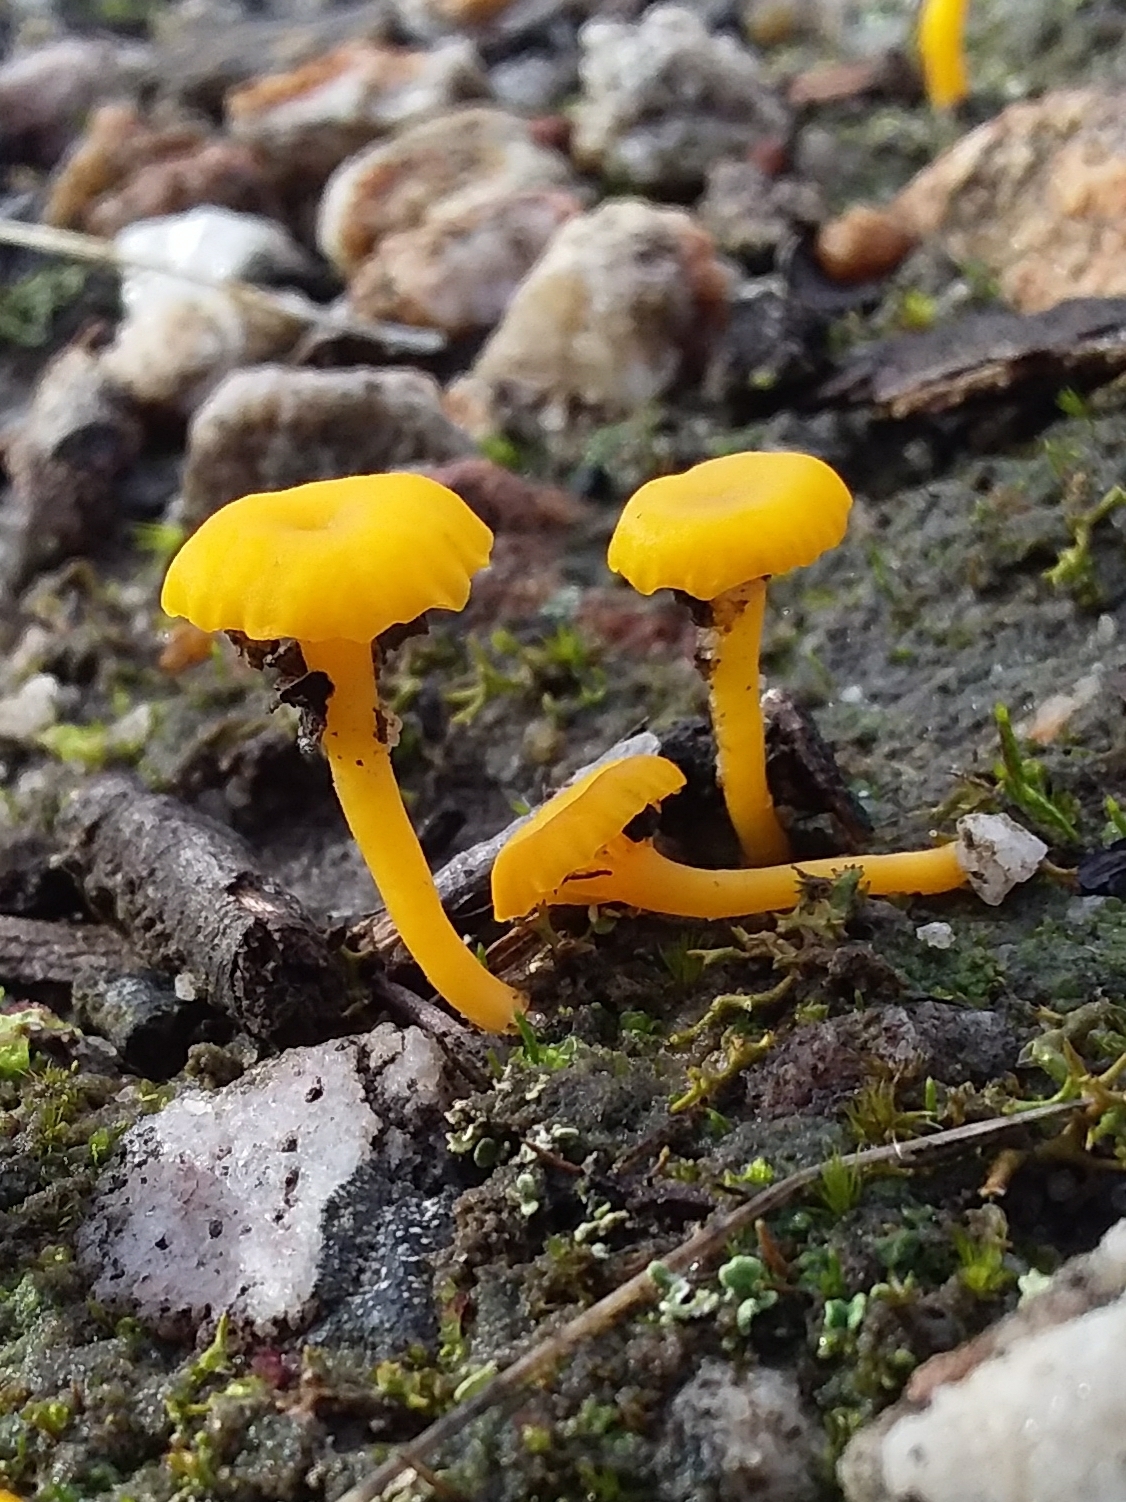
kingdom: Fungi
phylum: Basidiomycota
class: Agaricomycetes
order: Agaricales
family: Hygrophoraceae
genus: Lichenomphalia
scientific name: Lichenomphalia chromacea
